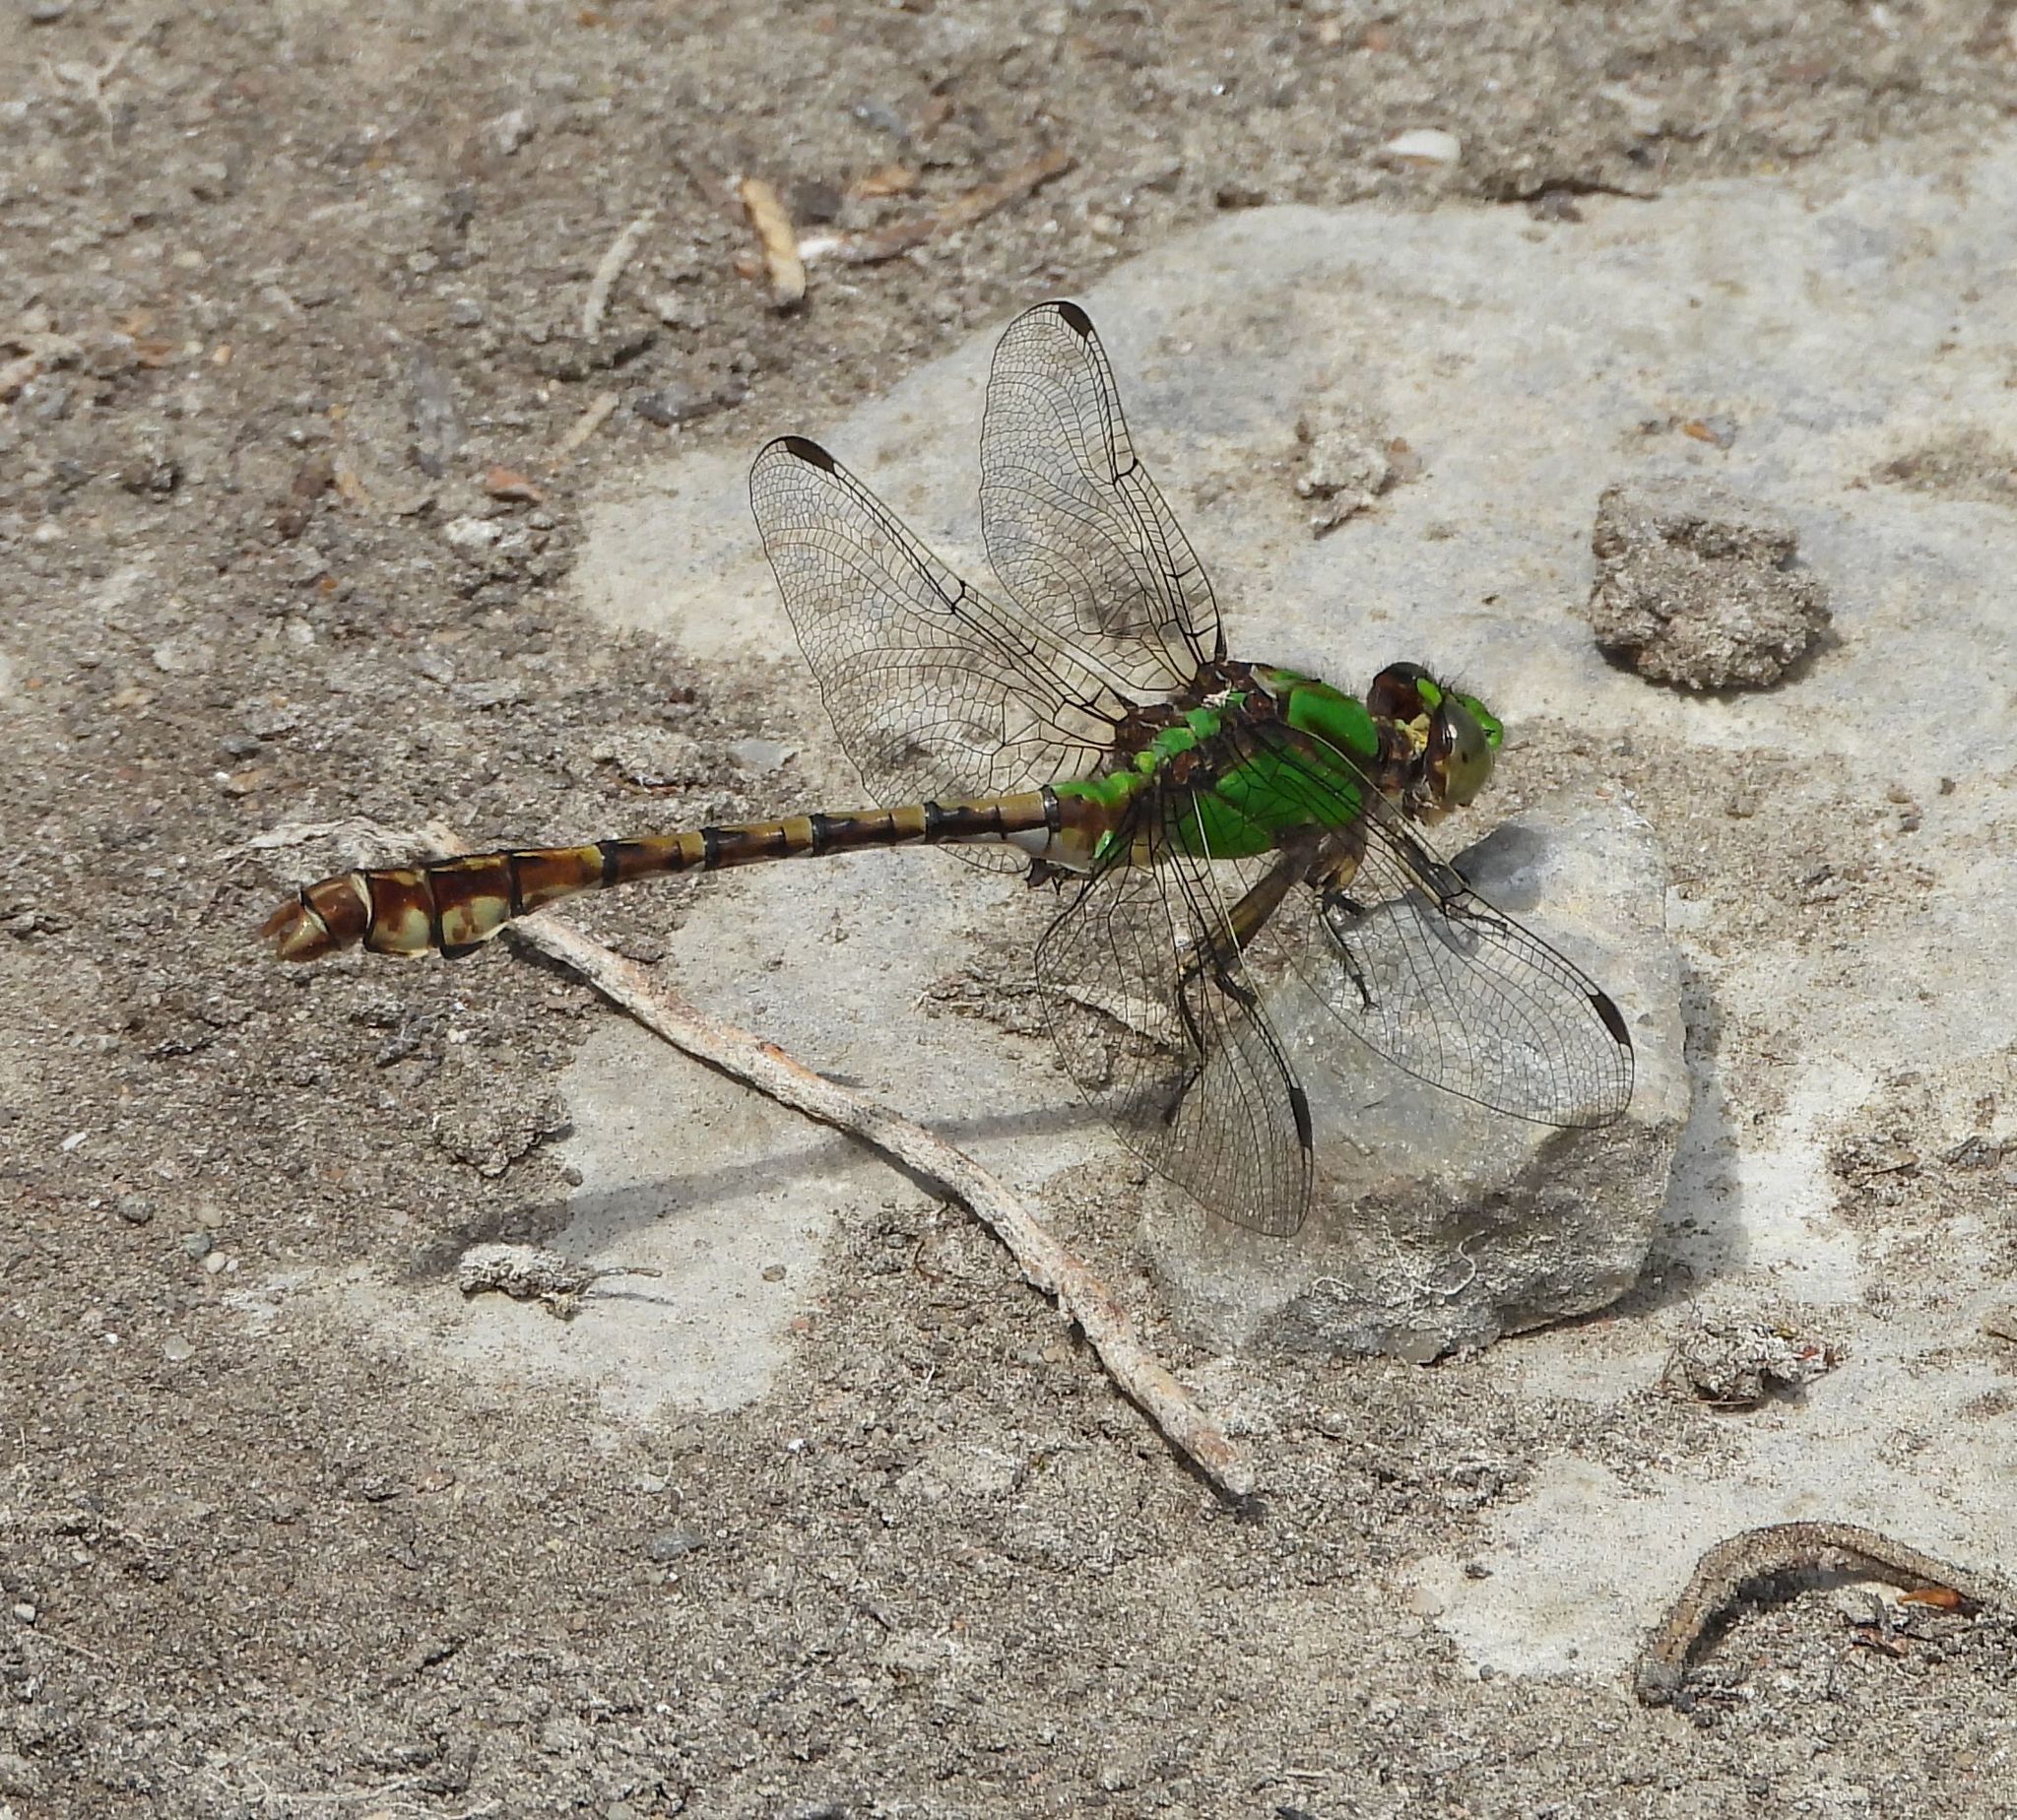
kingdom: Animalia
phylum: Arthropoda
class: Insecta
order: Odonata
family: Gomphidae
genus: Ophiogomphus
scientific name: Ophiogomphus rupinsulensis
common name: Rusty snaketail
